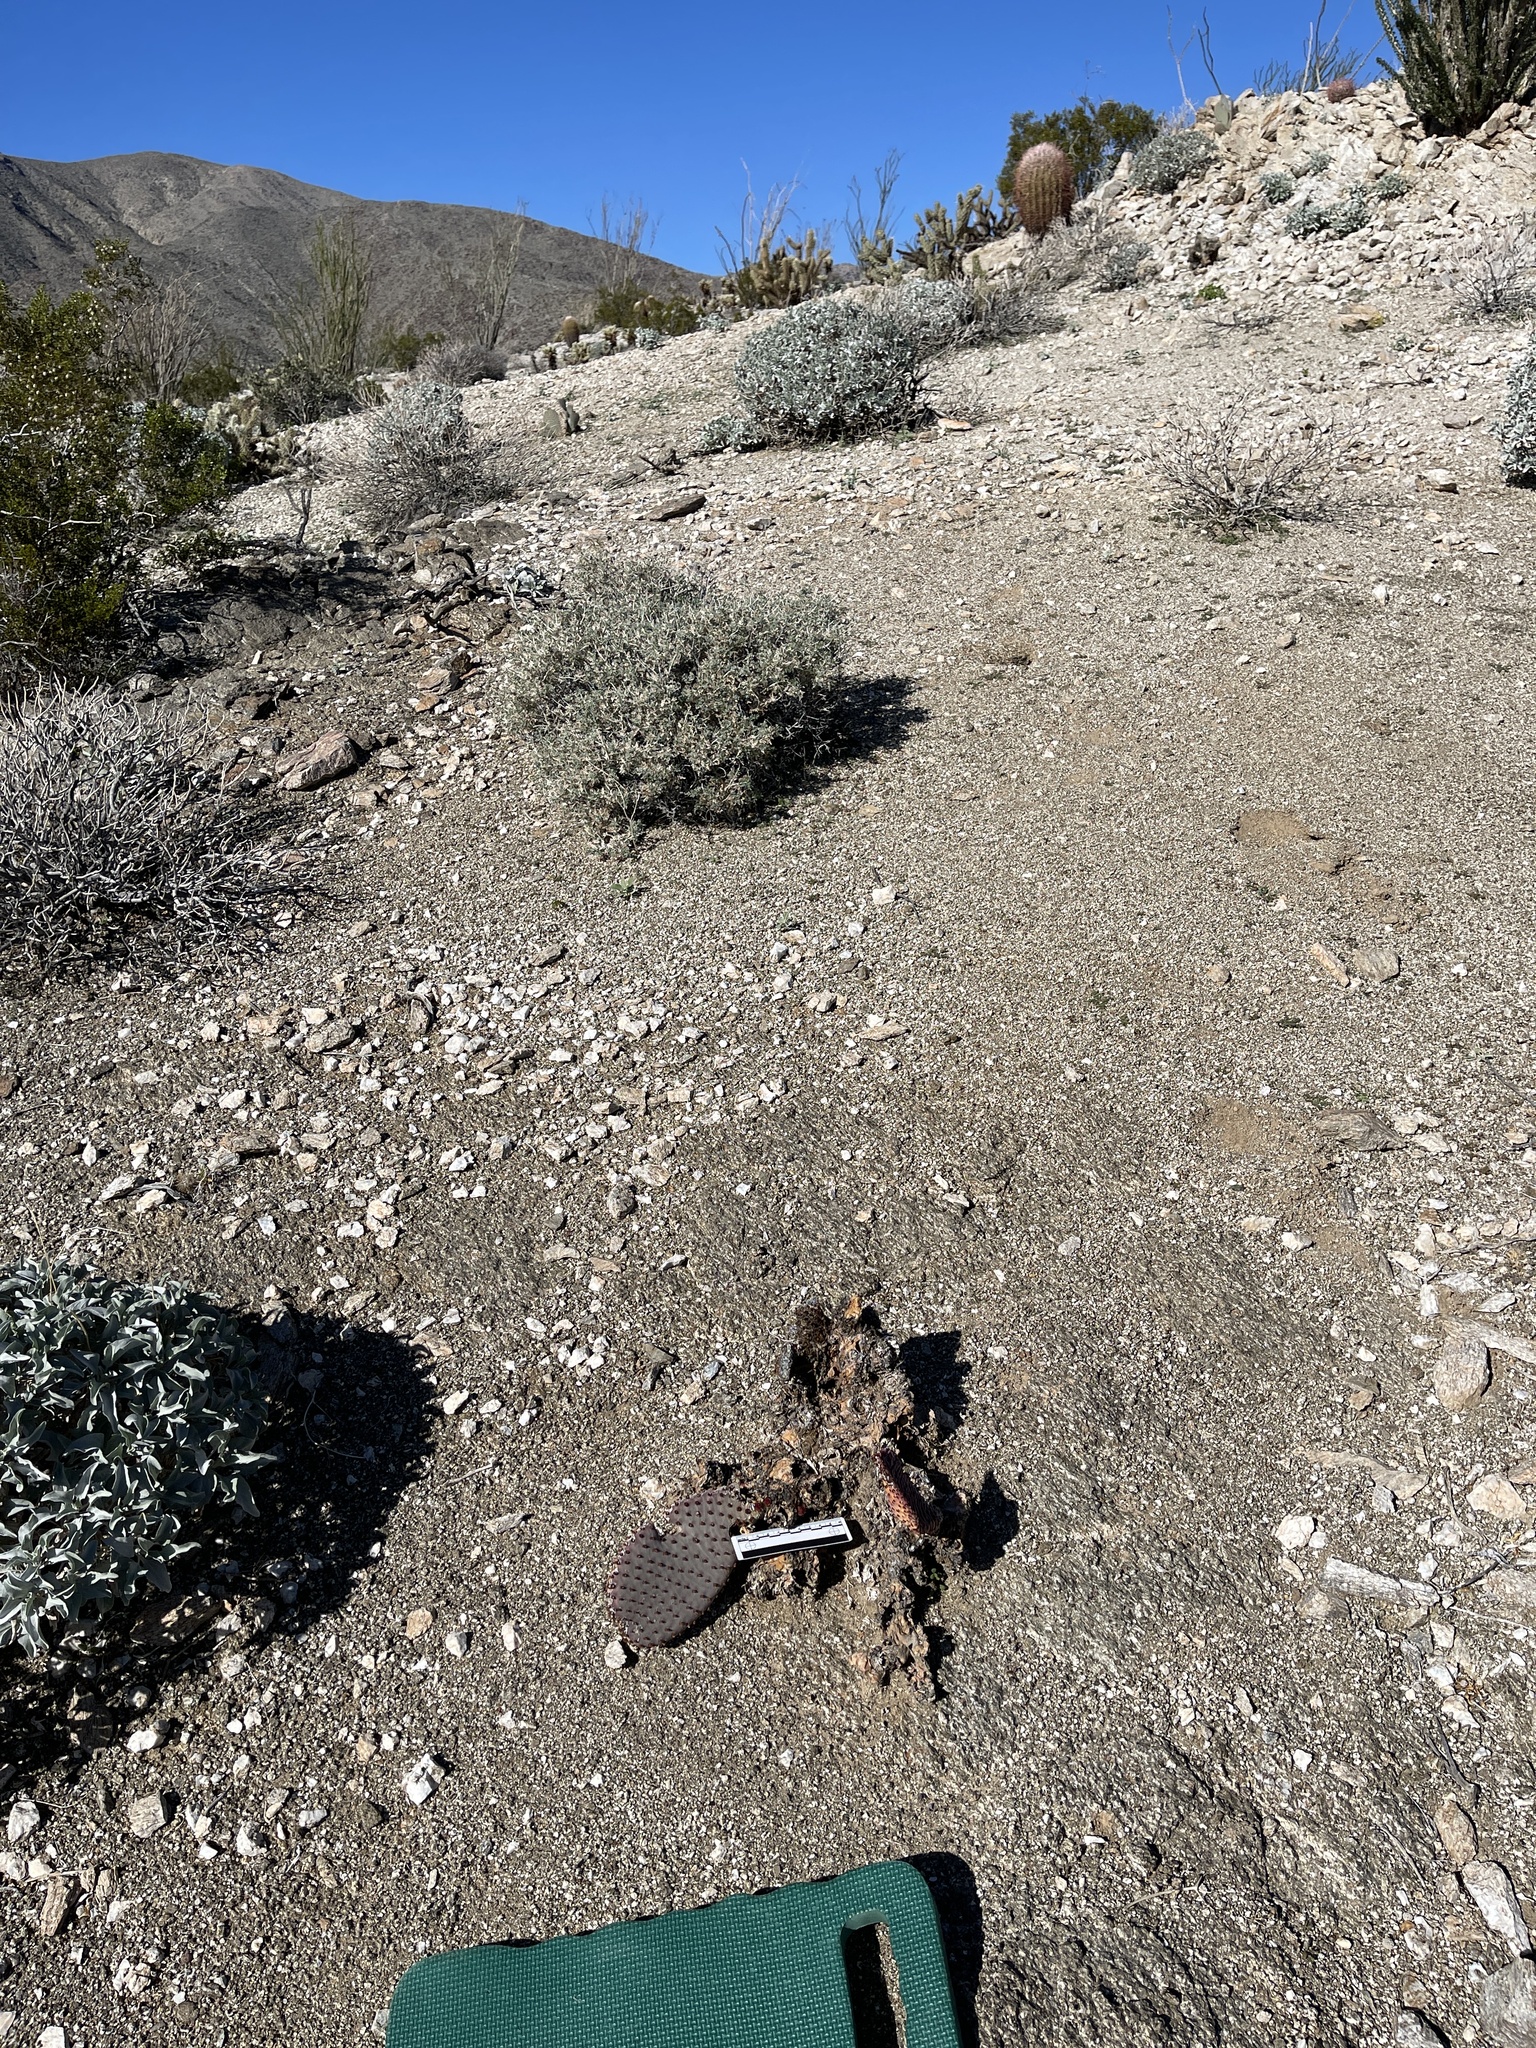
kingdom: Plantae
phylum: Tracheophyta
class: Magnoliopsida
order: Caryophyllales
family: Cactaceae
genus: Opuntia
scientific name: Opuntia basilaris
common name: Beavertail prickly-pear
